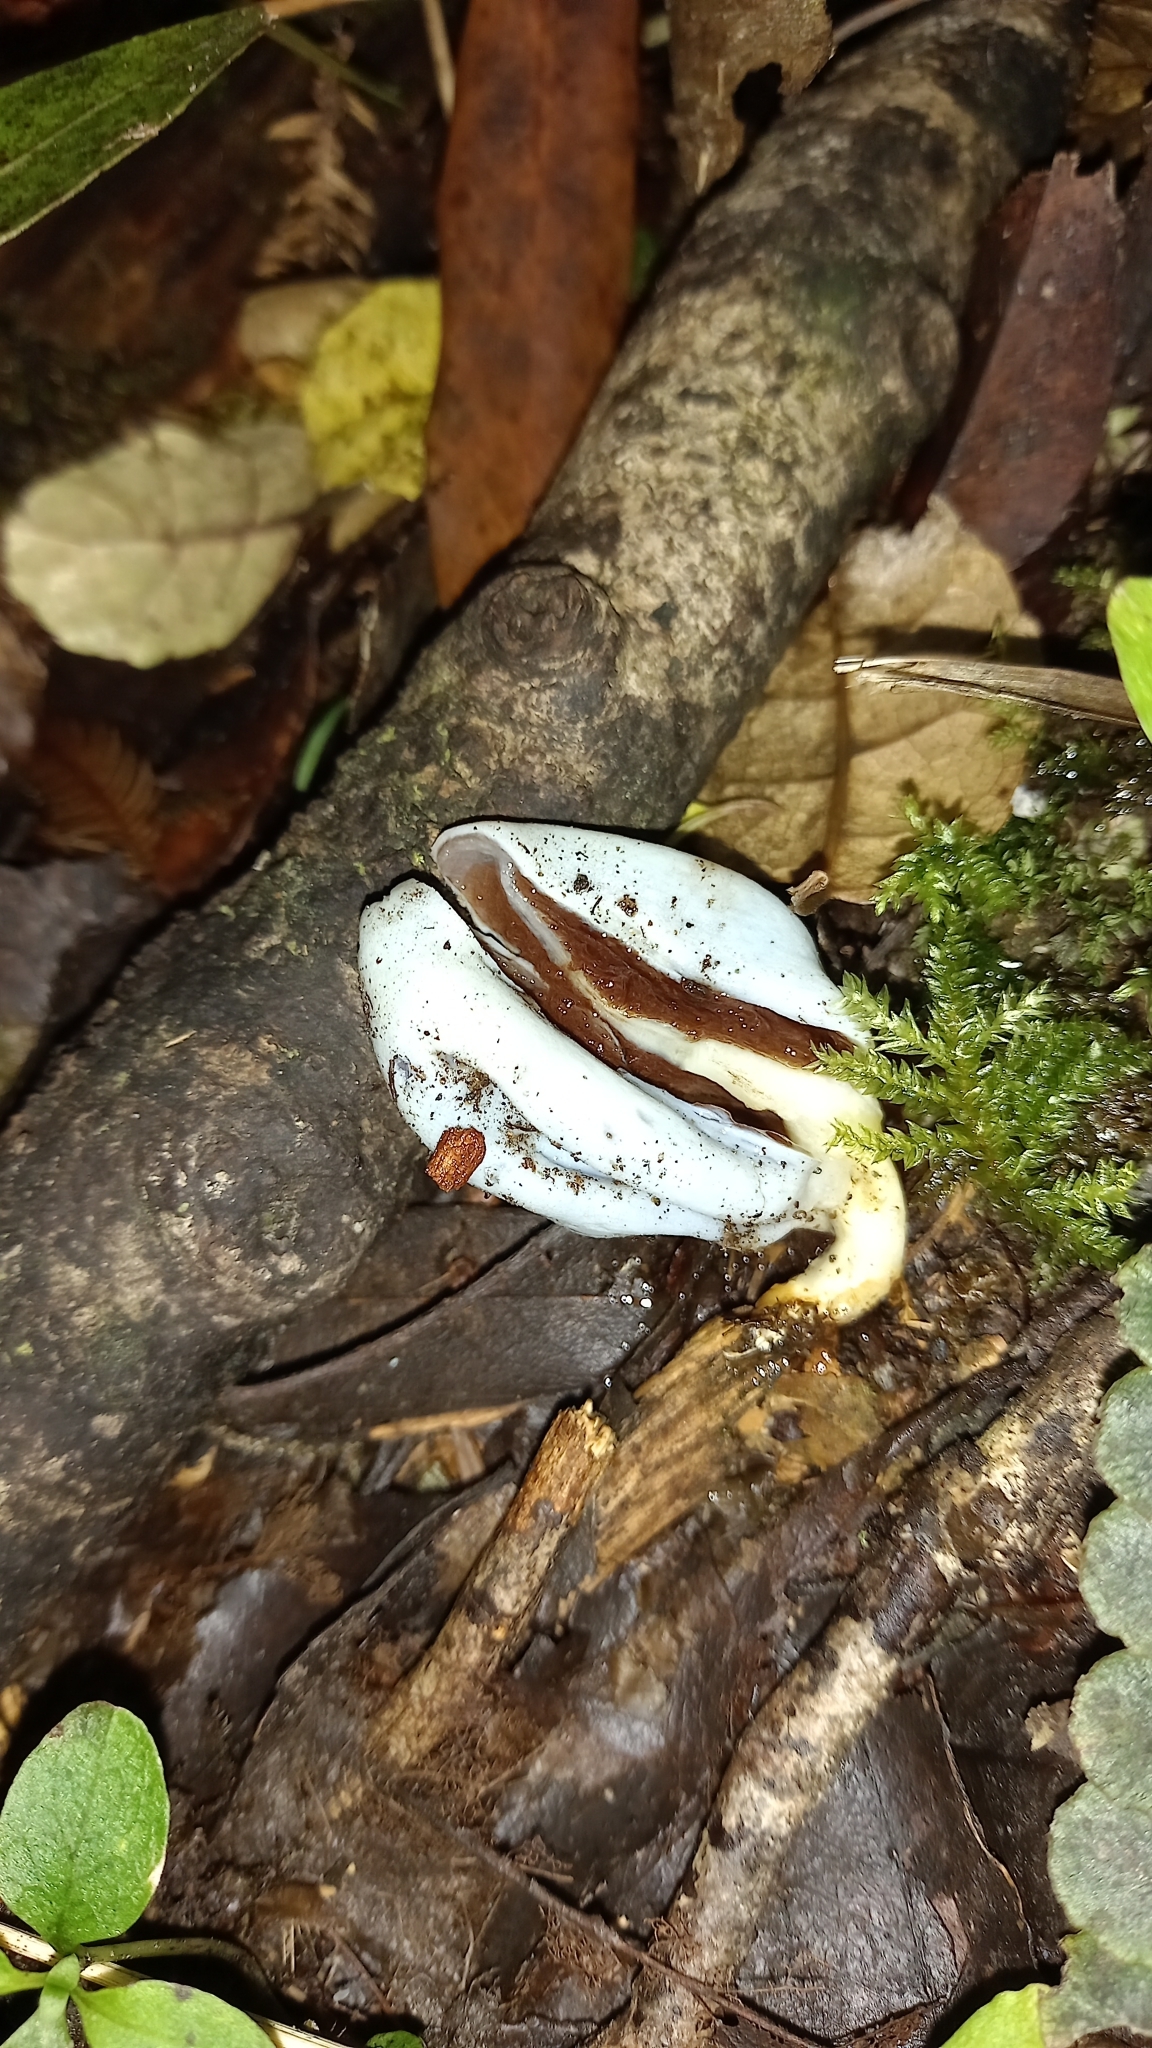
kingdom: Fungi
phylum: Basidiomycota
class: Agaricomycetes
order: Agaricales
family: Agaricaceae
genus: Clavogaster
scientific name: Clavogaster virescens
